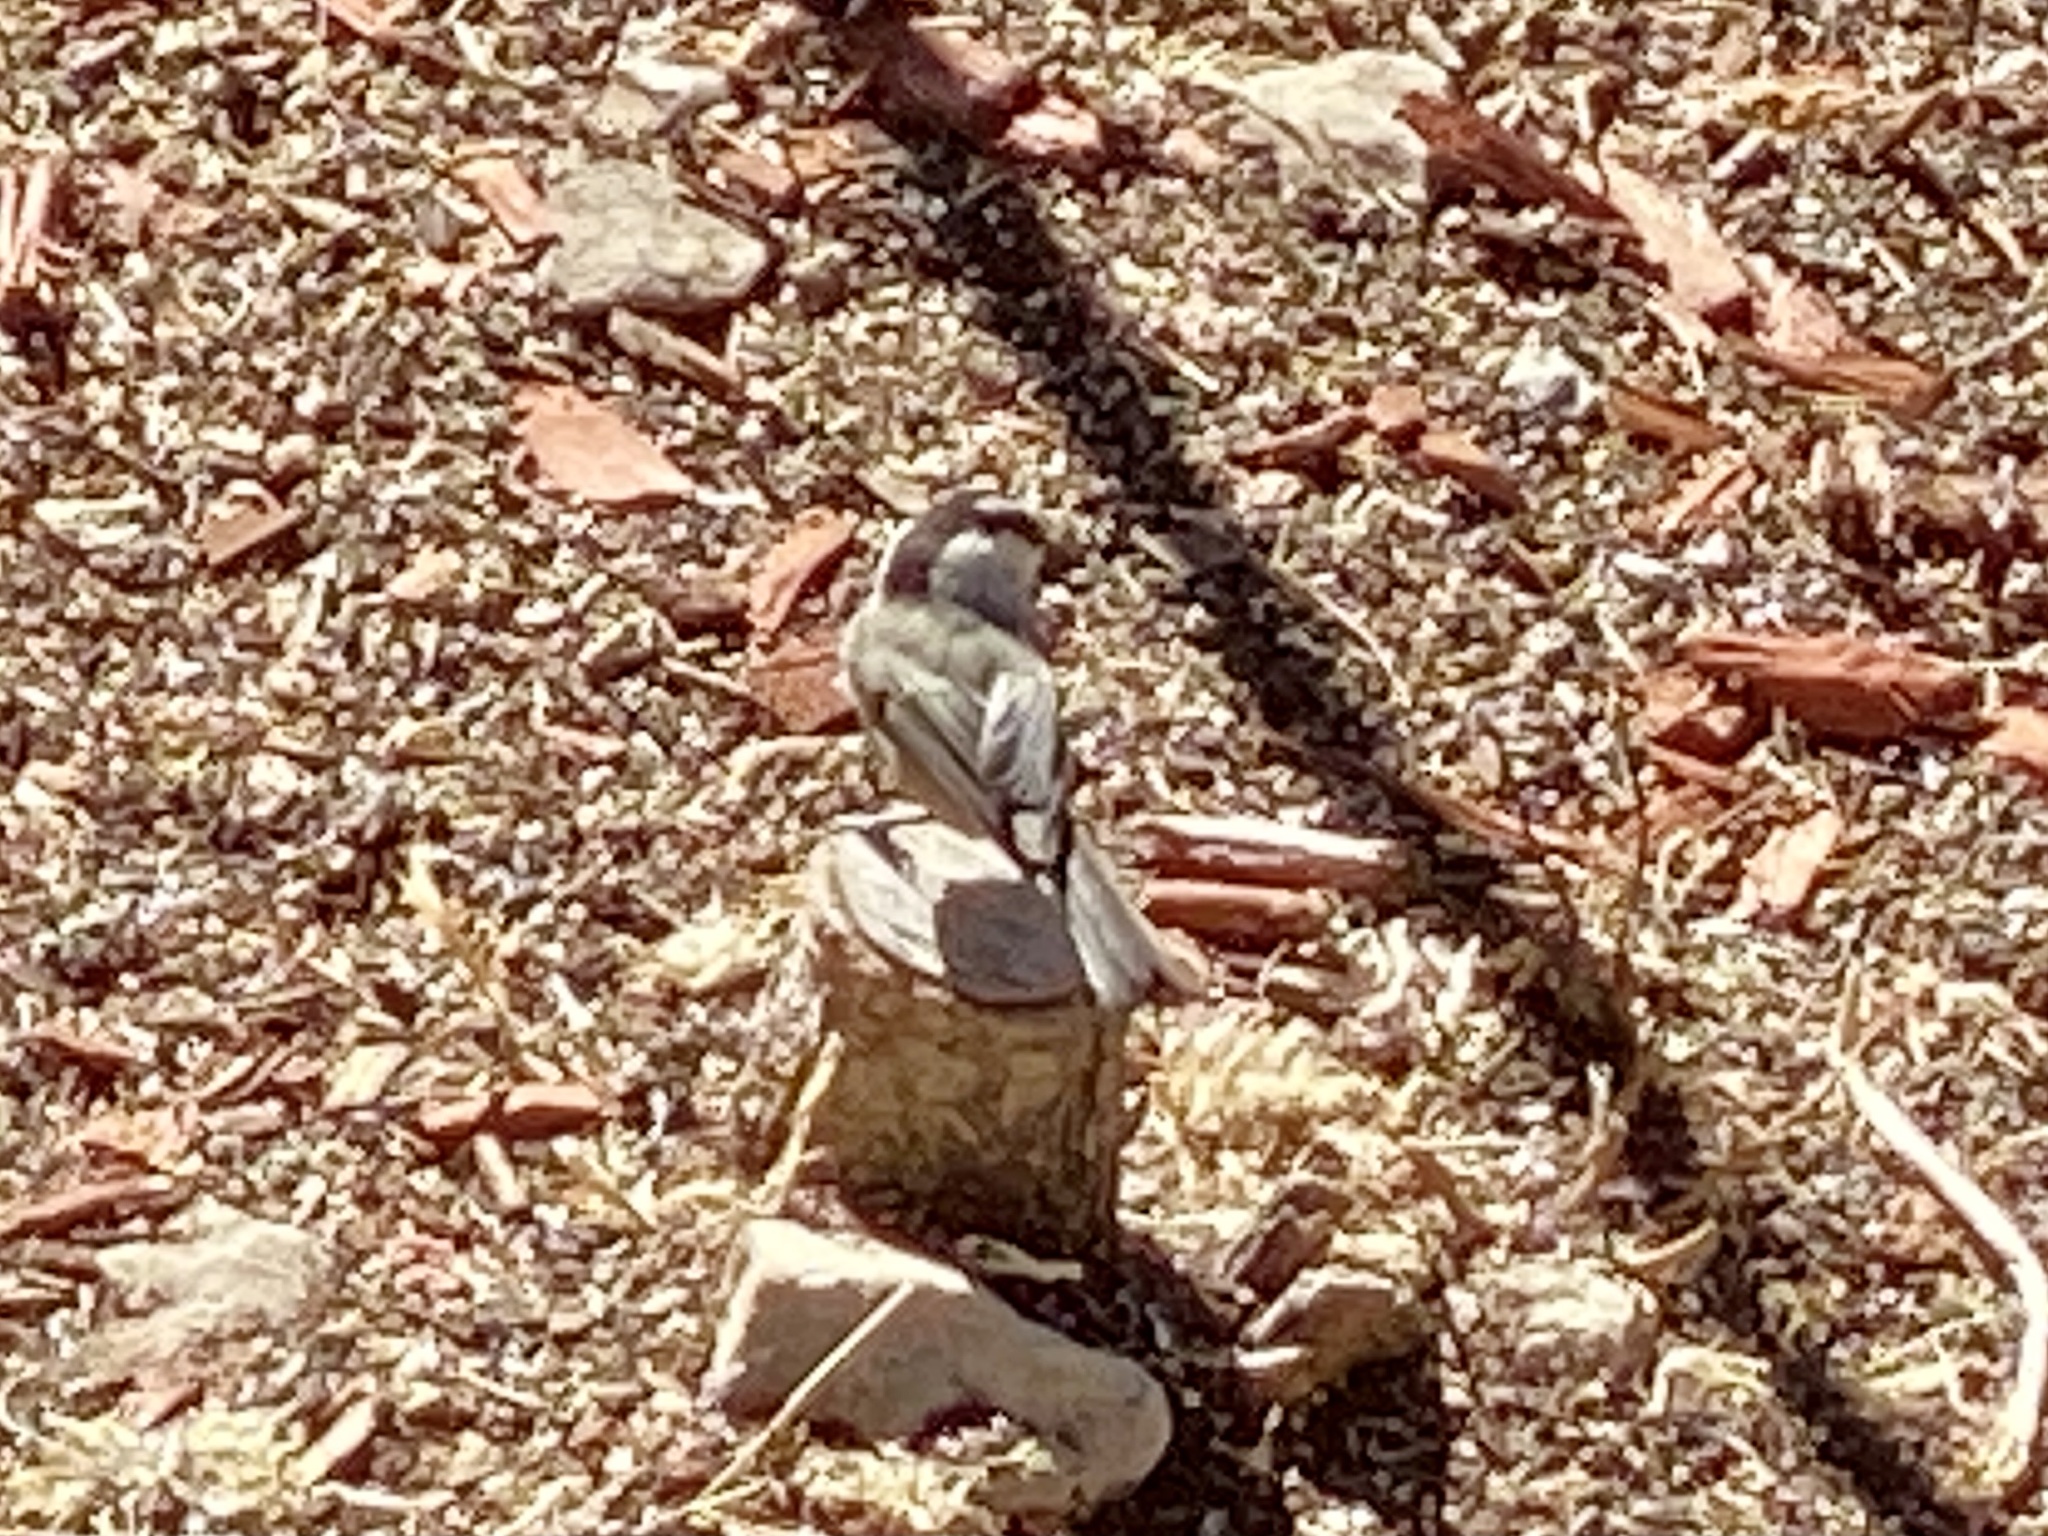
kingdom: Animalia
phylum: Chordata
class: Aves
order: Passeriformes
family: Paridae
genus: Poecile
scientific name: Poecile gambeli
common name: Mountain chickadee
